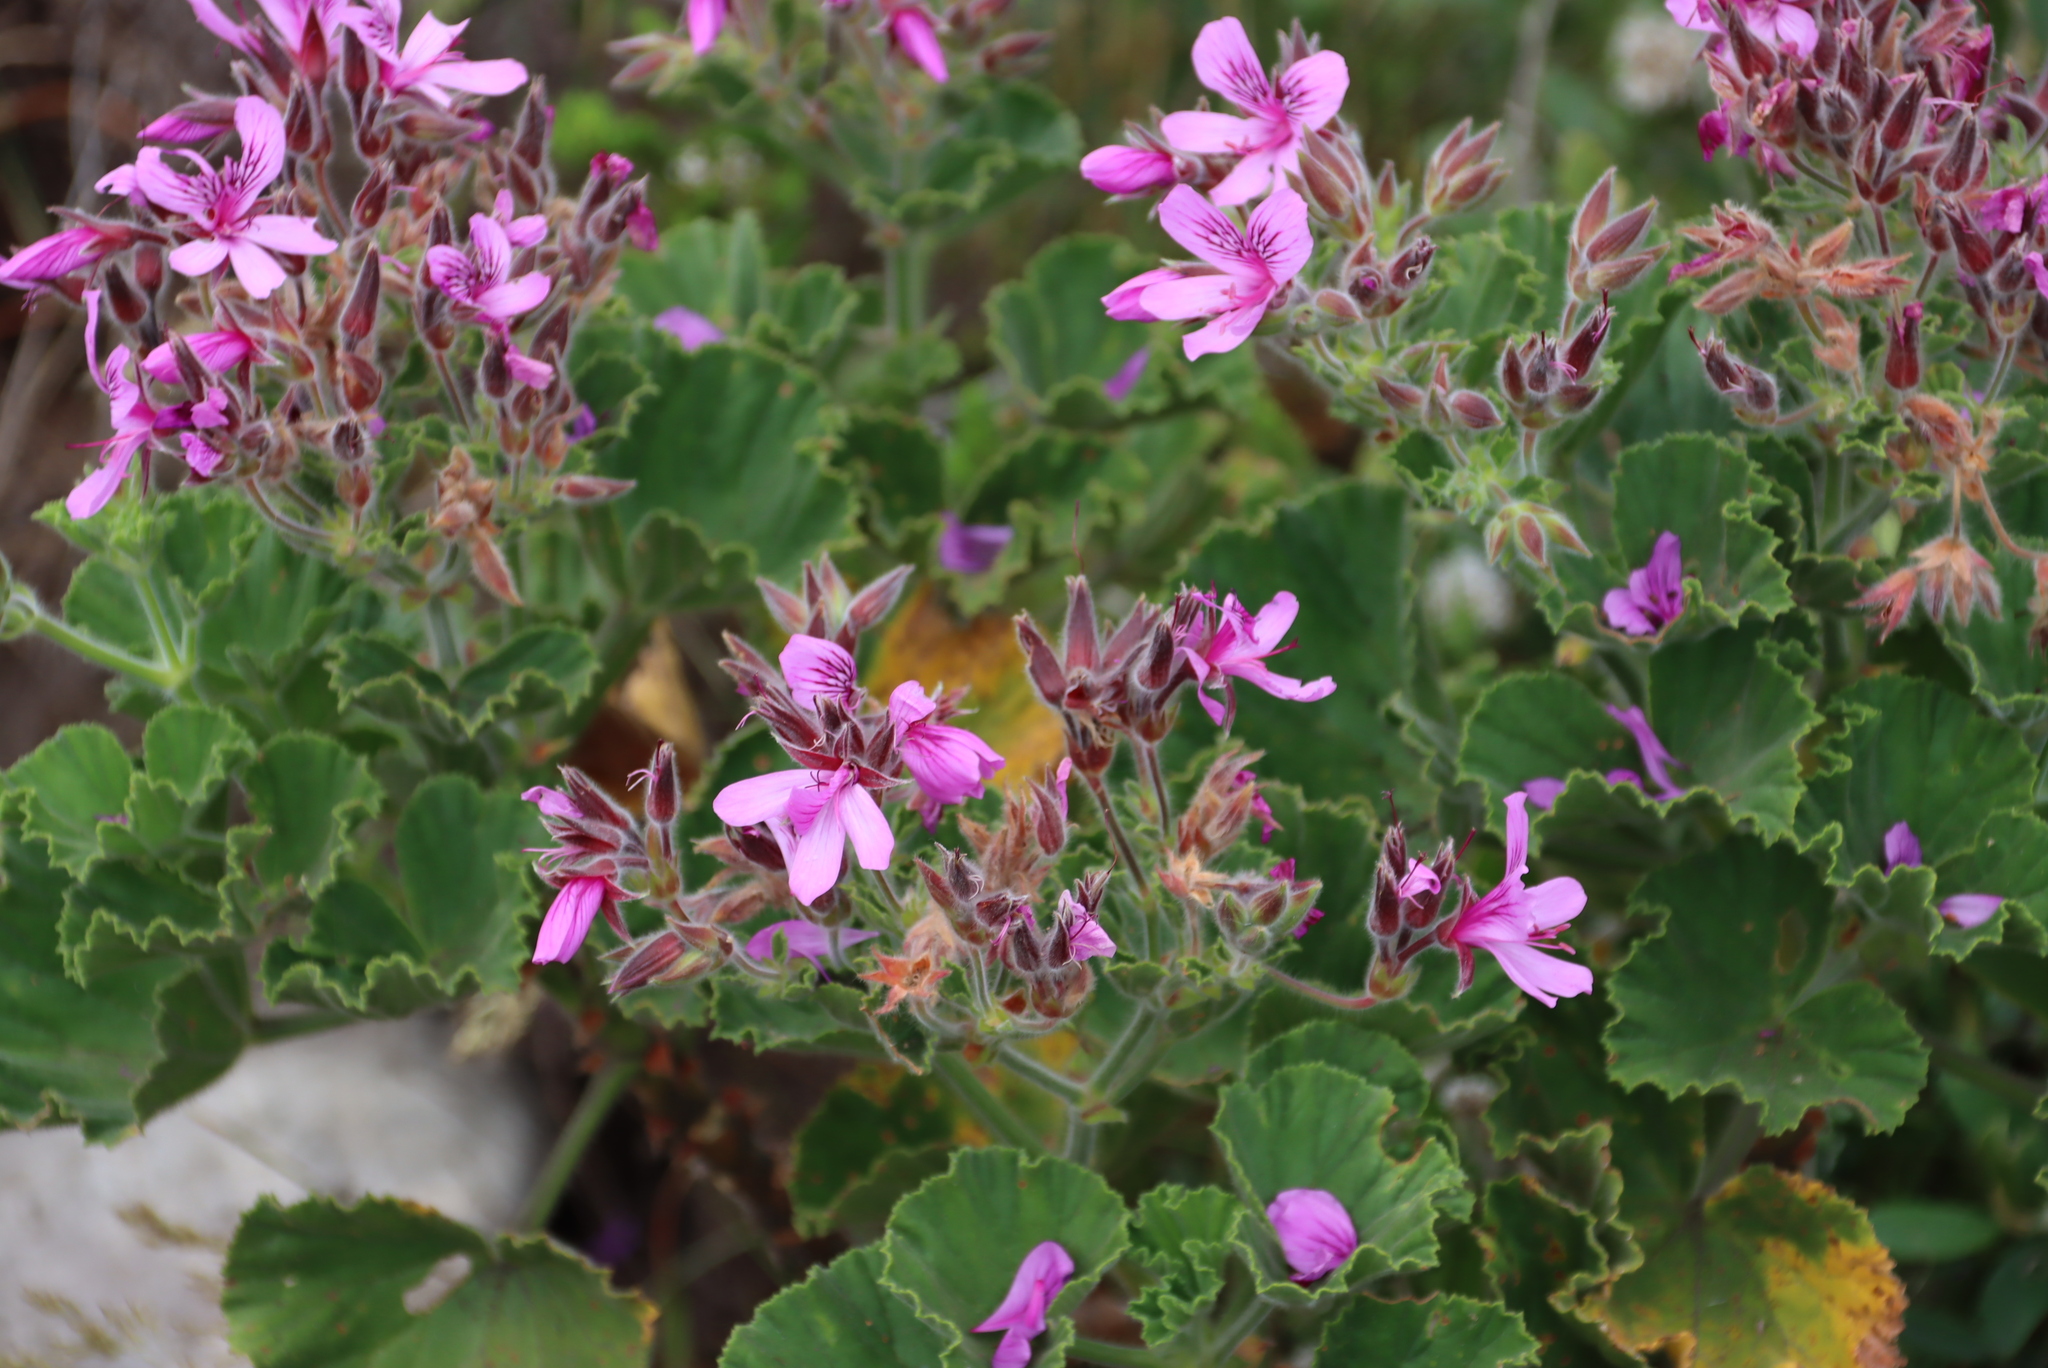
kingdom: Plantae
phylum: Tracheophyta
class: Magnoliopsida
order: Geraniales
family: Geraniaceae
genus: Pelargonium
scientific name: Pelargonium cucullatum
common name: Tree pelargonium
